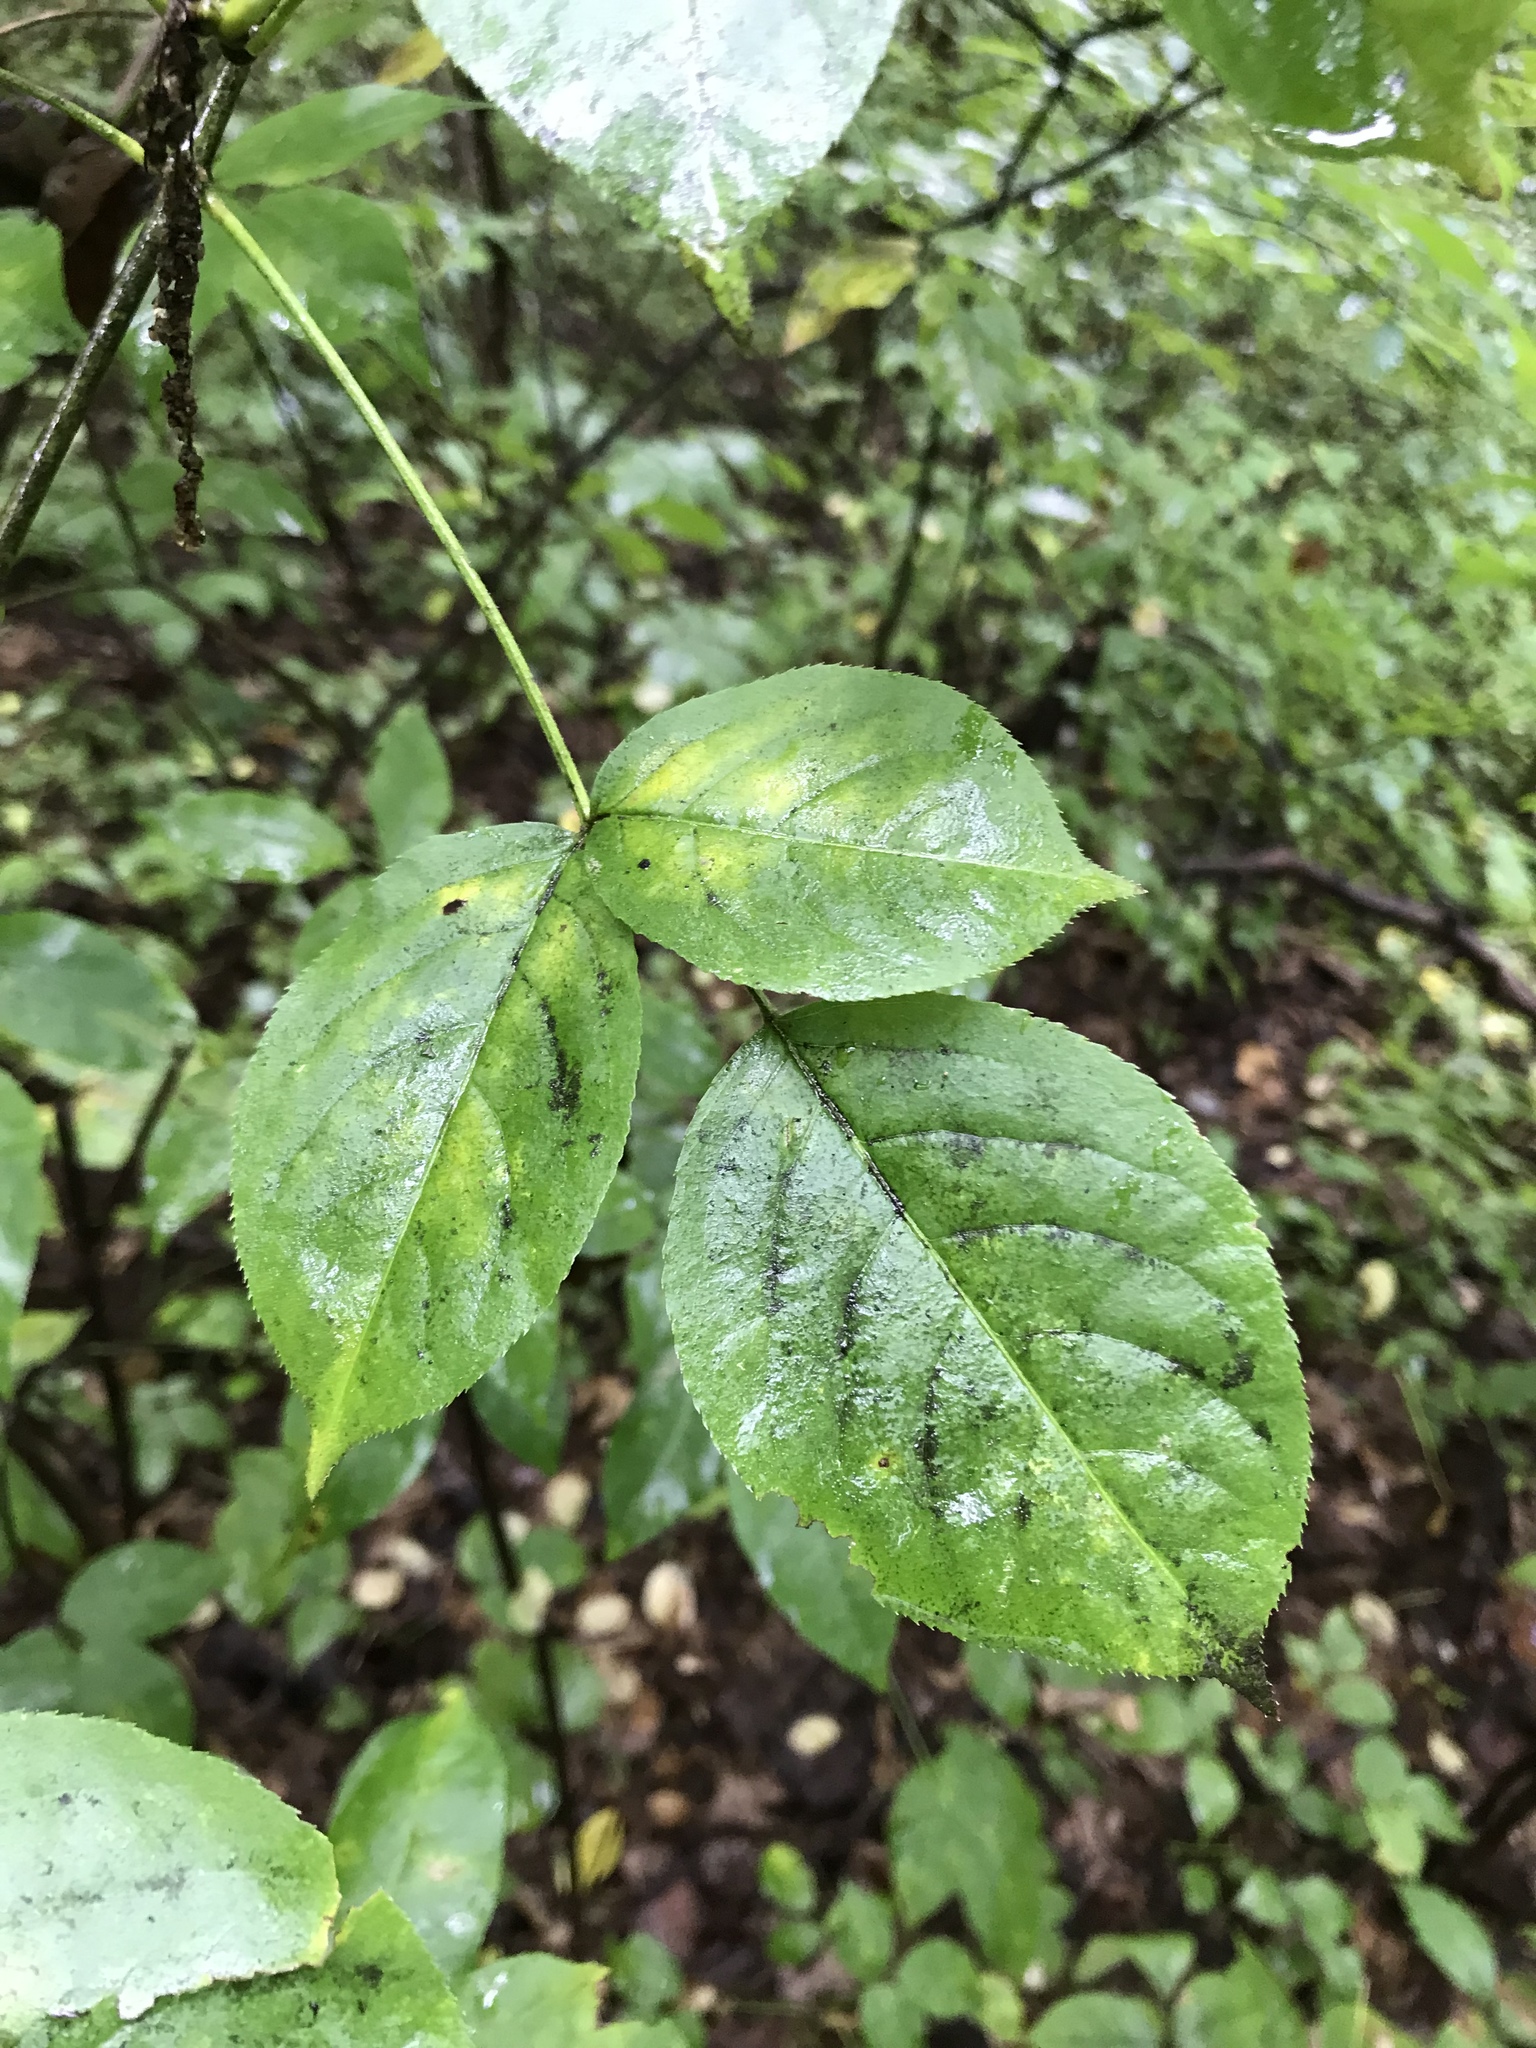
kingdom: Plantae
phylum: Tracheophyta
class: Magnoliopsida
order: Crossosomatales
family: Staphyleaceae
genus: Staphylea
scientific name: Staphylea trifolia
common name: American bladdernut
